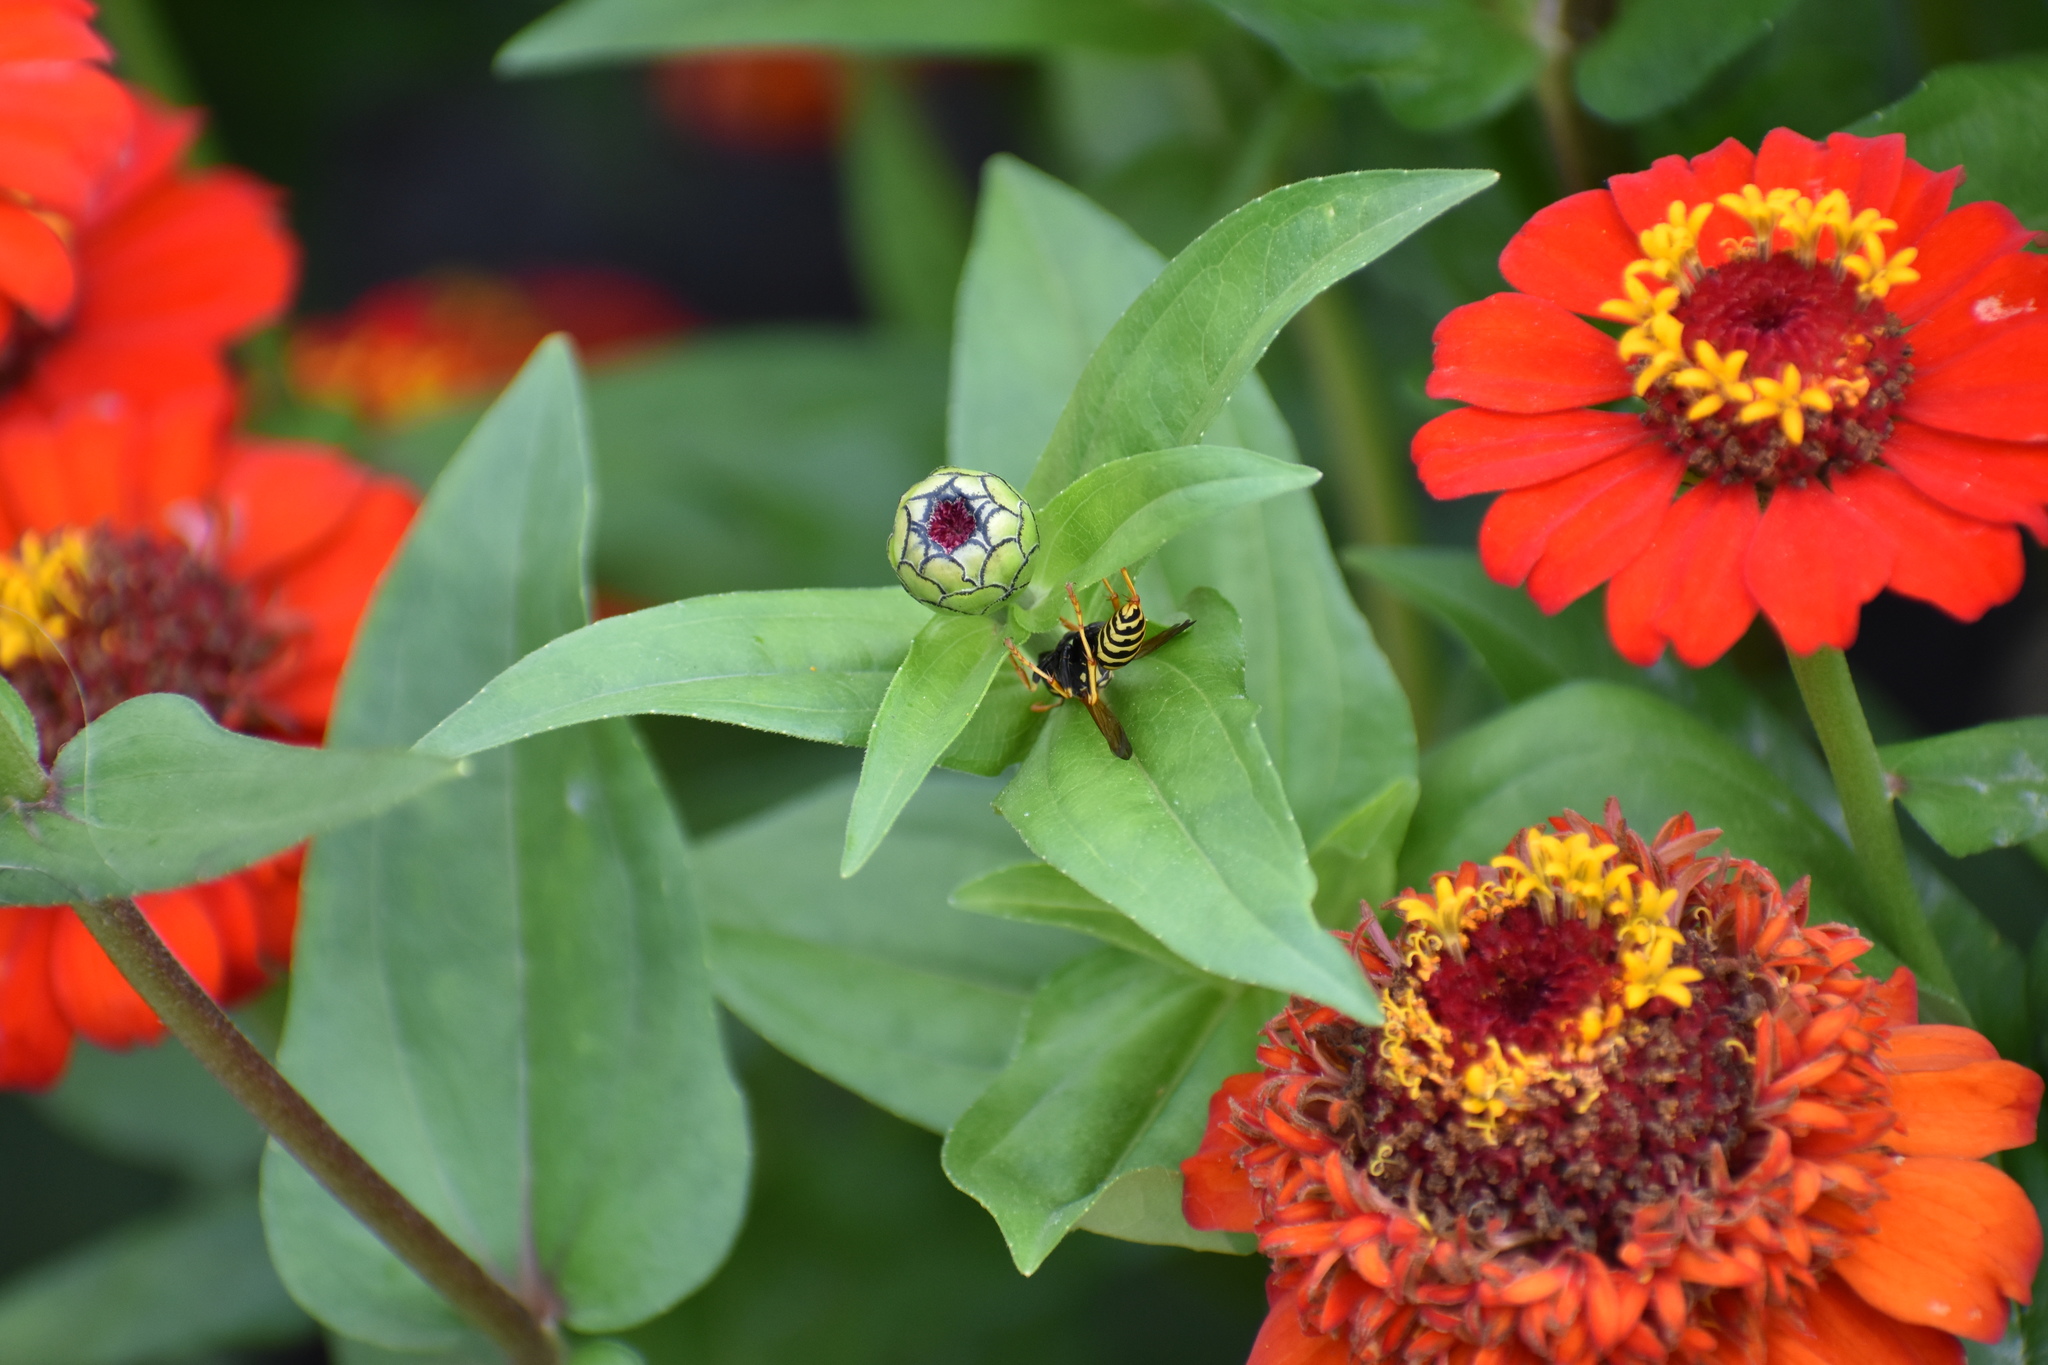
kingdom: Animalia
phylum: Arthropoda
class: Insecta
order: Hymenoptera
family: Eumenidae
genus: Polistes
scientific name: Polistes dominula
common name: Paper wasp
